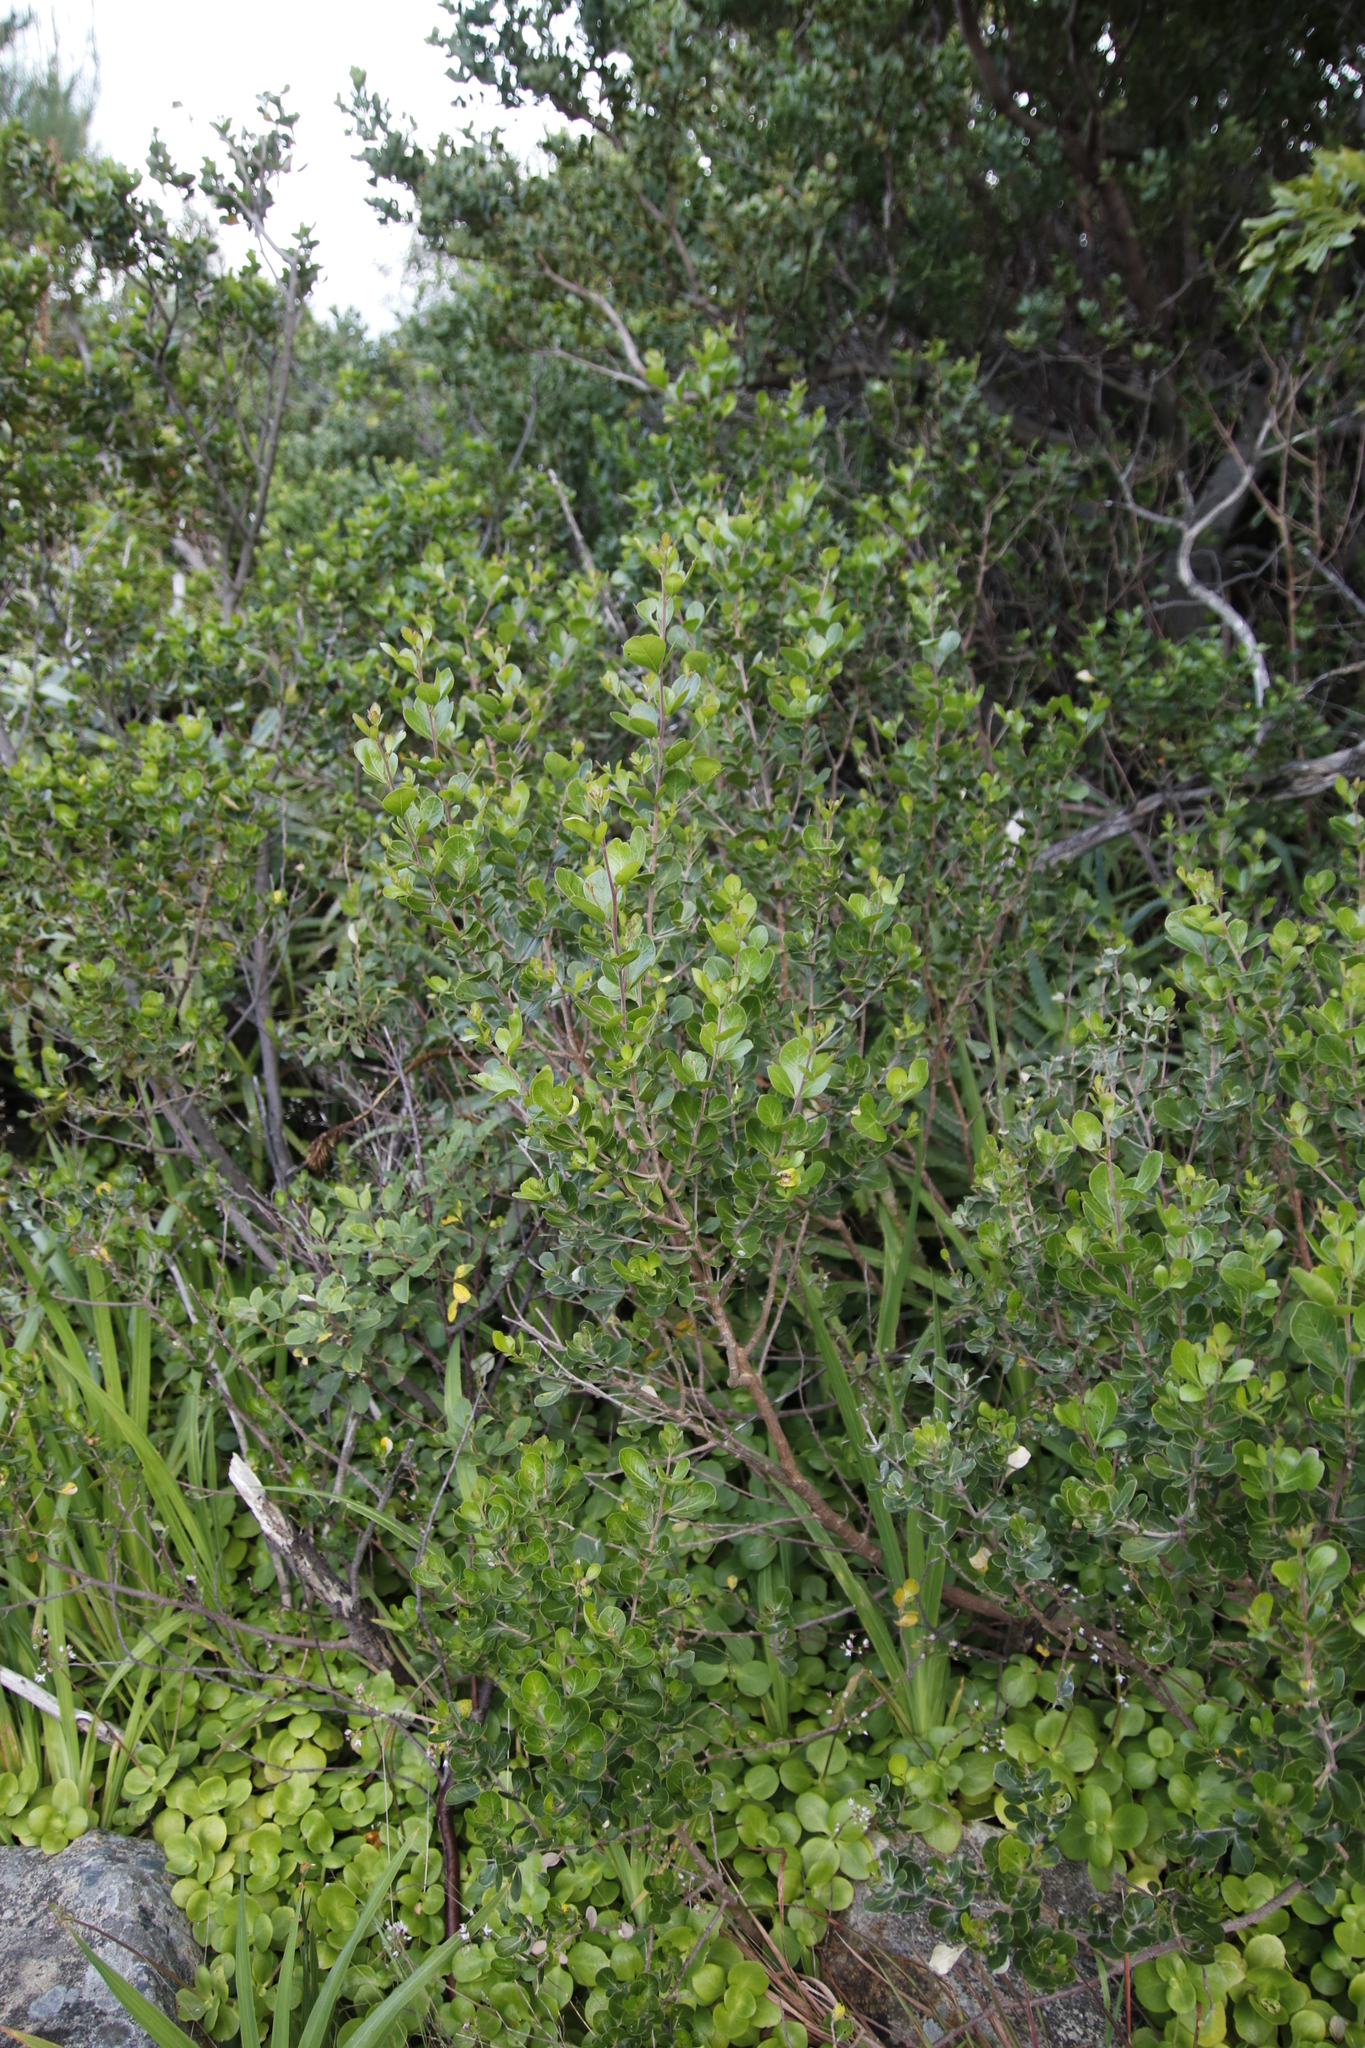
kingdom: Plantae
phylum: Tracheophyta
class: Magnoliopsida
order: Sapindales
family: Anacardiaceae
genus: Searsia
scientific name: Searsia lucida
